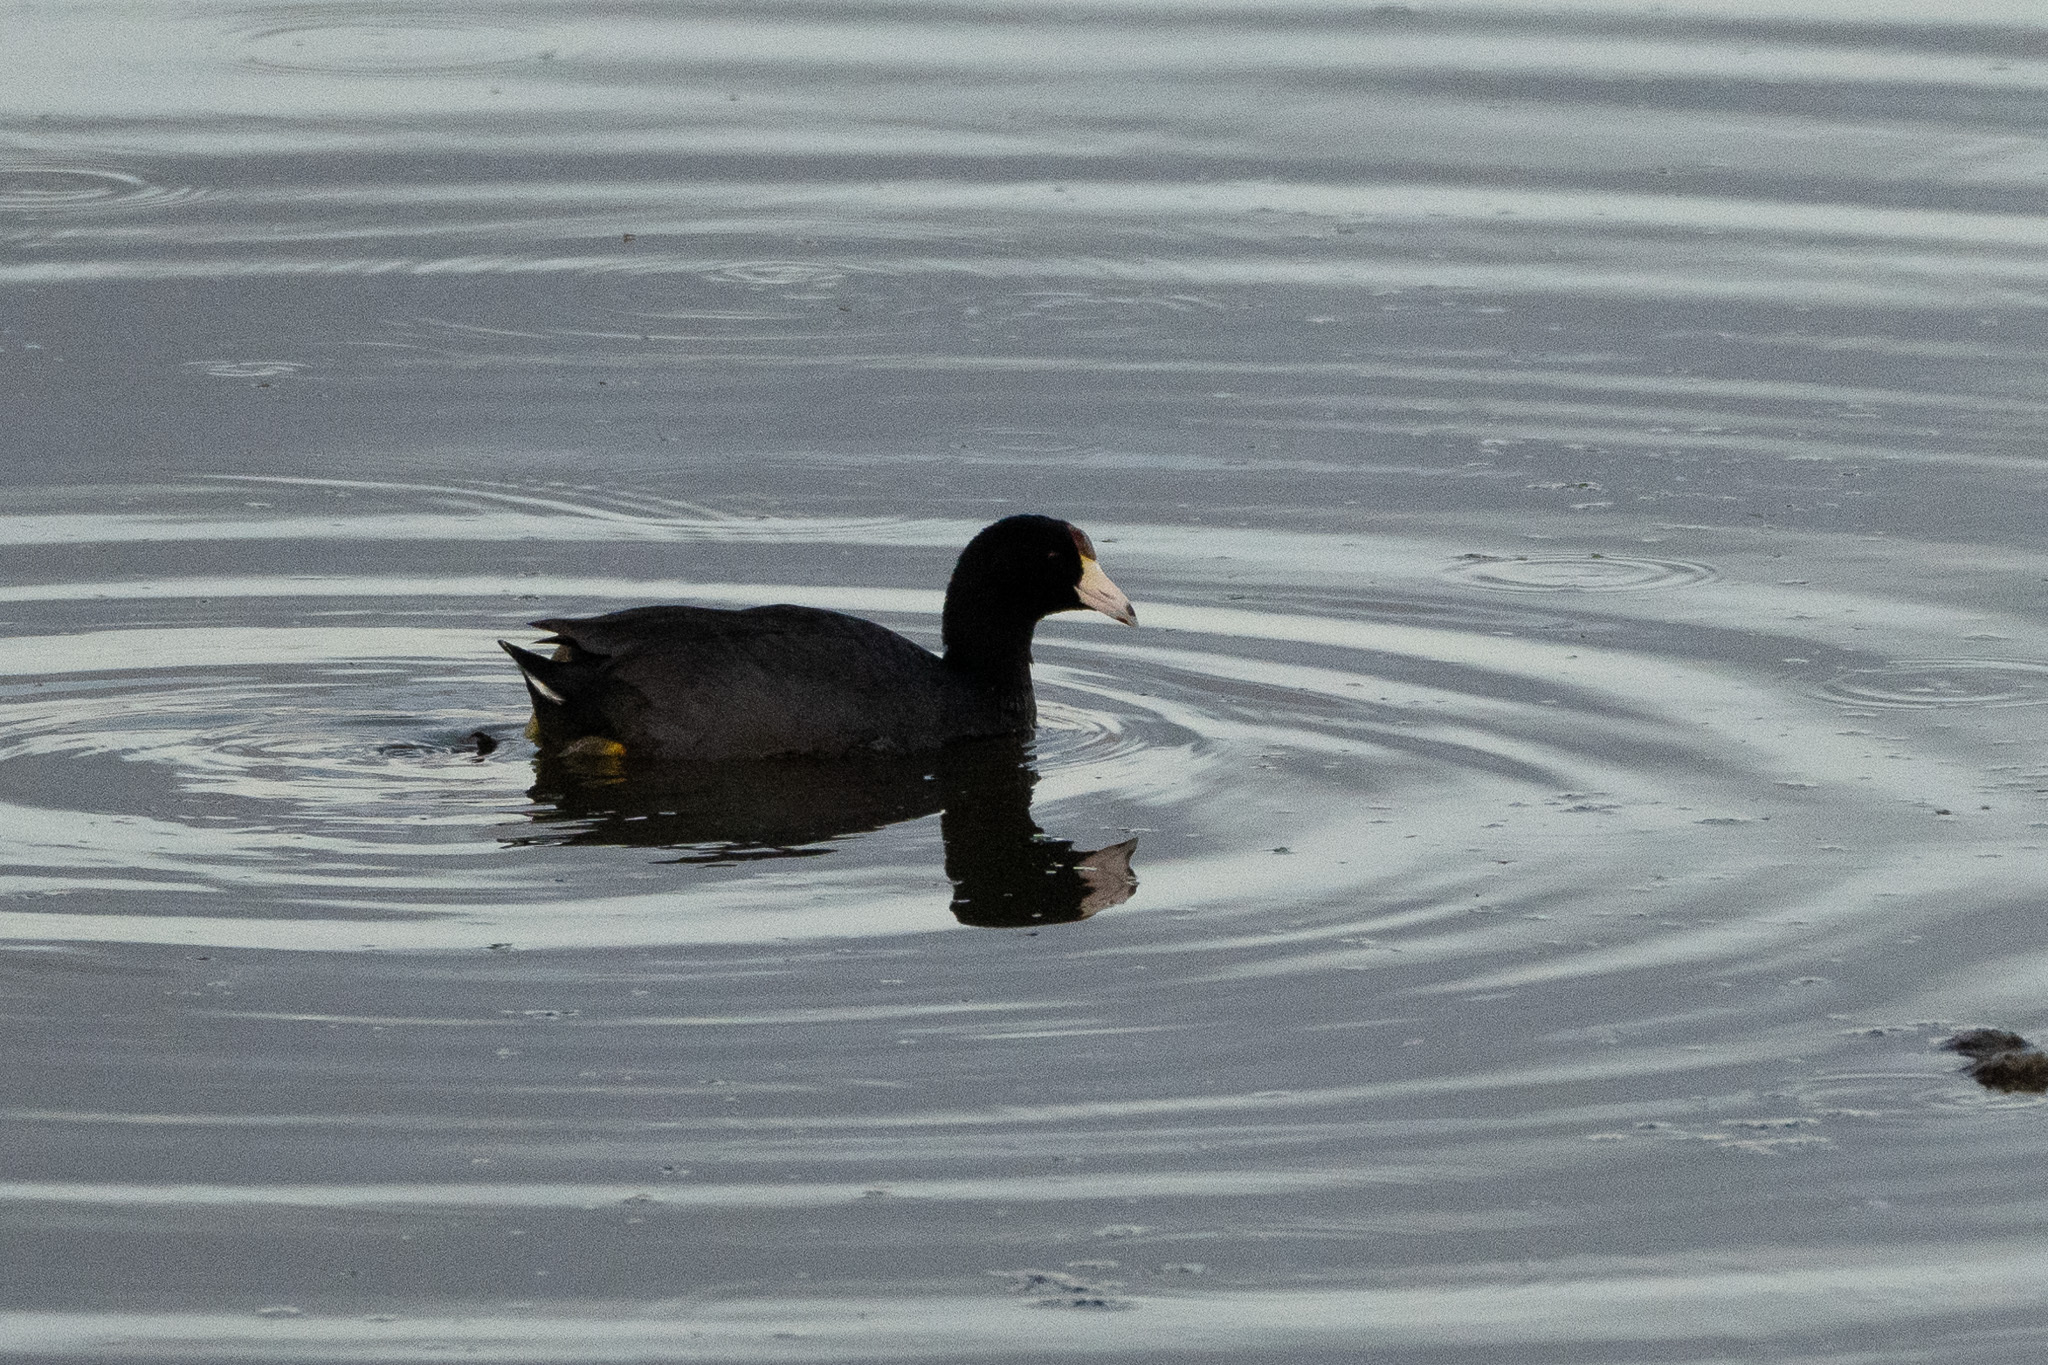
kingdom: Animalia
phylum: Chordata
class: Aves
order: Gruiformes
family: Rallidae
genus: Fulica
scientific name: Fulica alai
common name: Hawaiian coot
